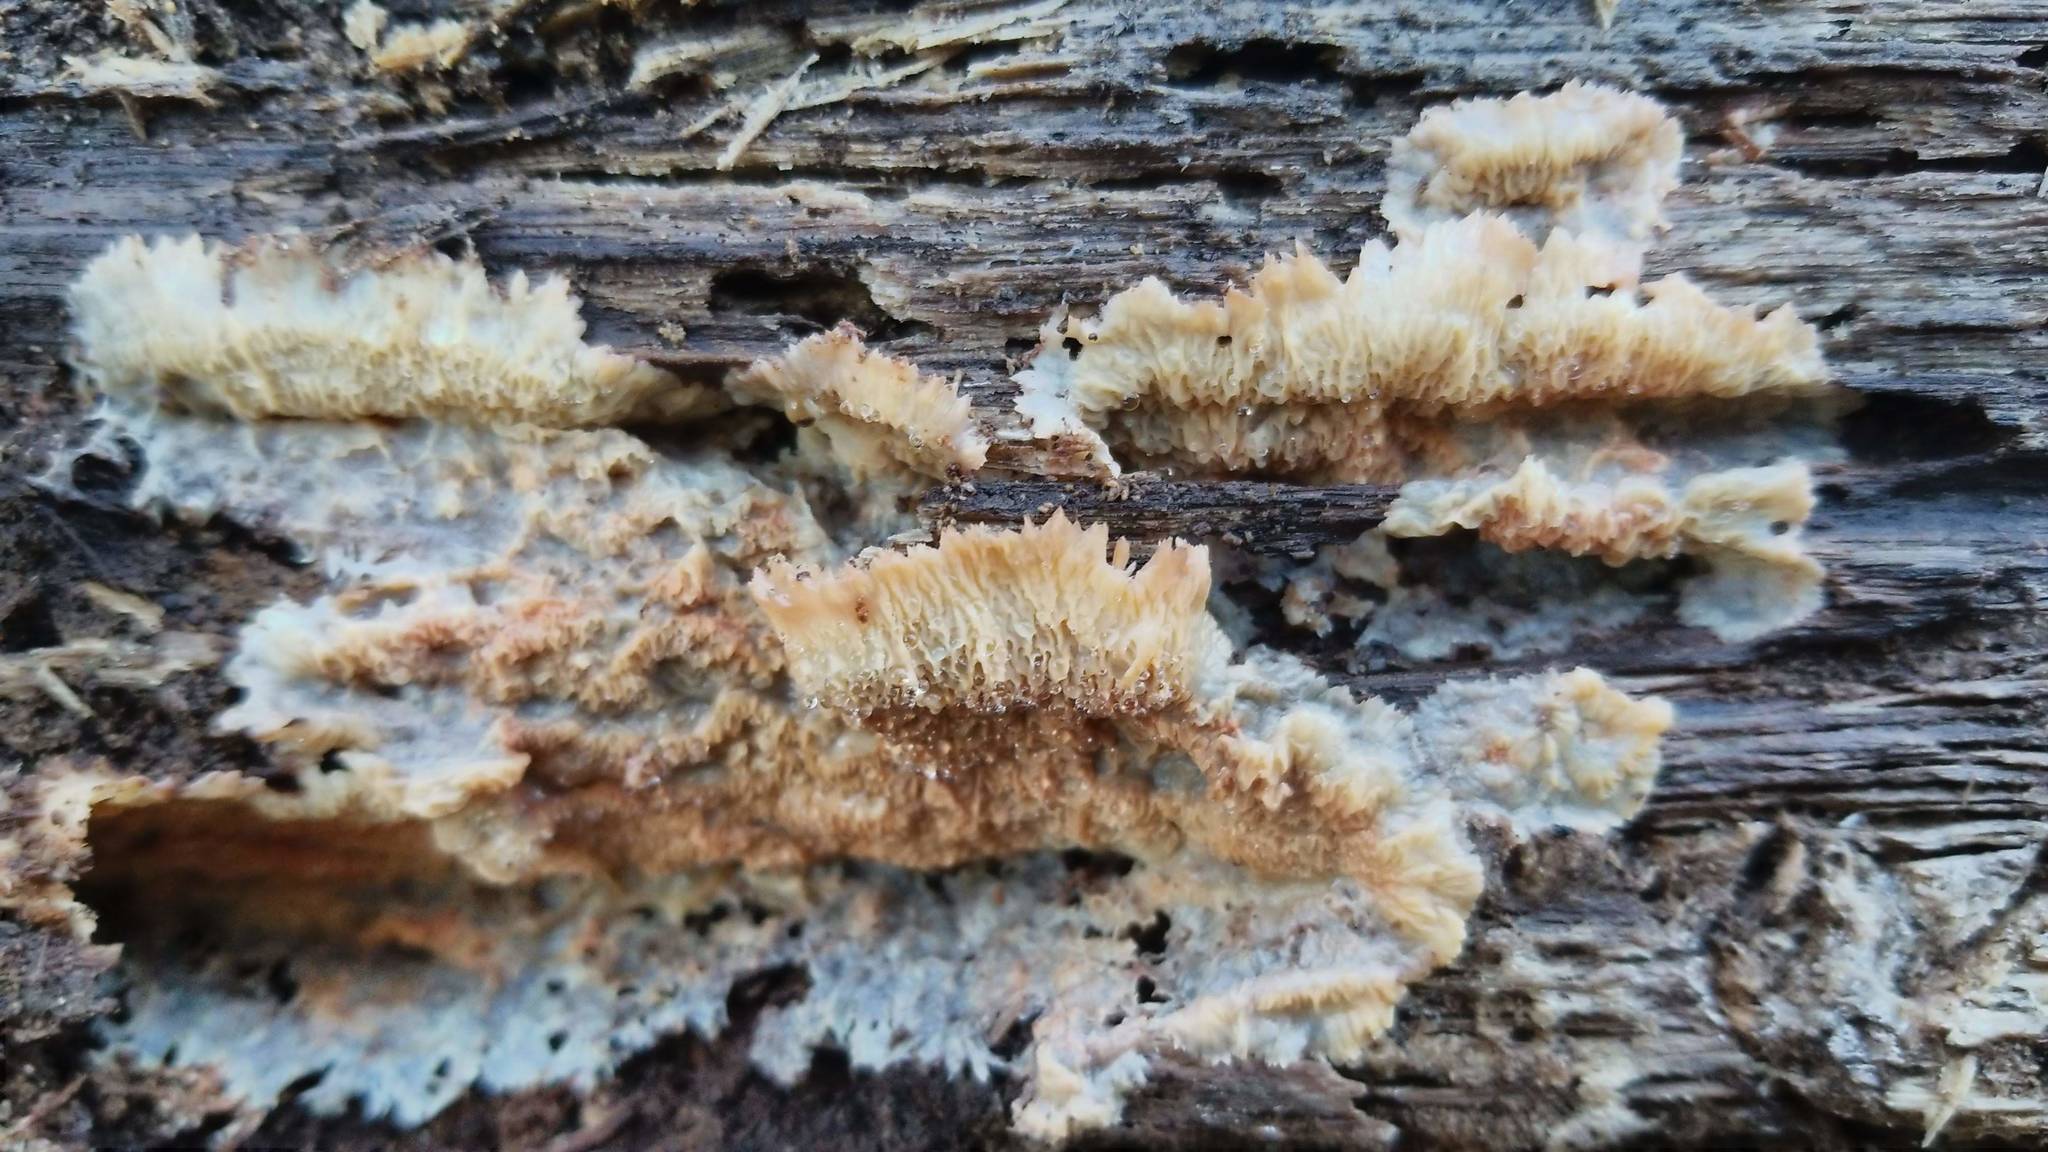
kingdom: Fungi
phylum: Basidiomycota
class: Agaricomycetes
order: Polyporales
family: Meruliaceae
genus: Phlebia
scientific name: Phlebia tremellosa
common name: Jelly rot
